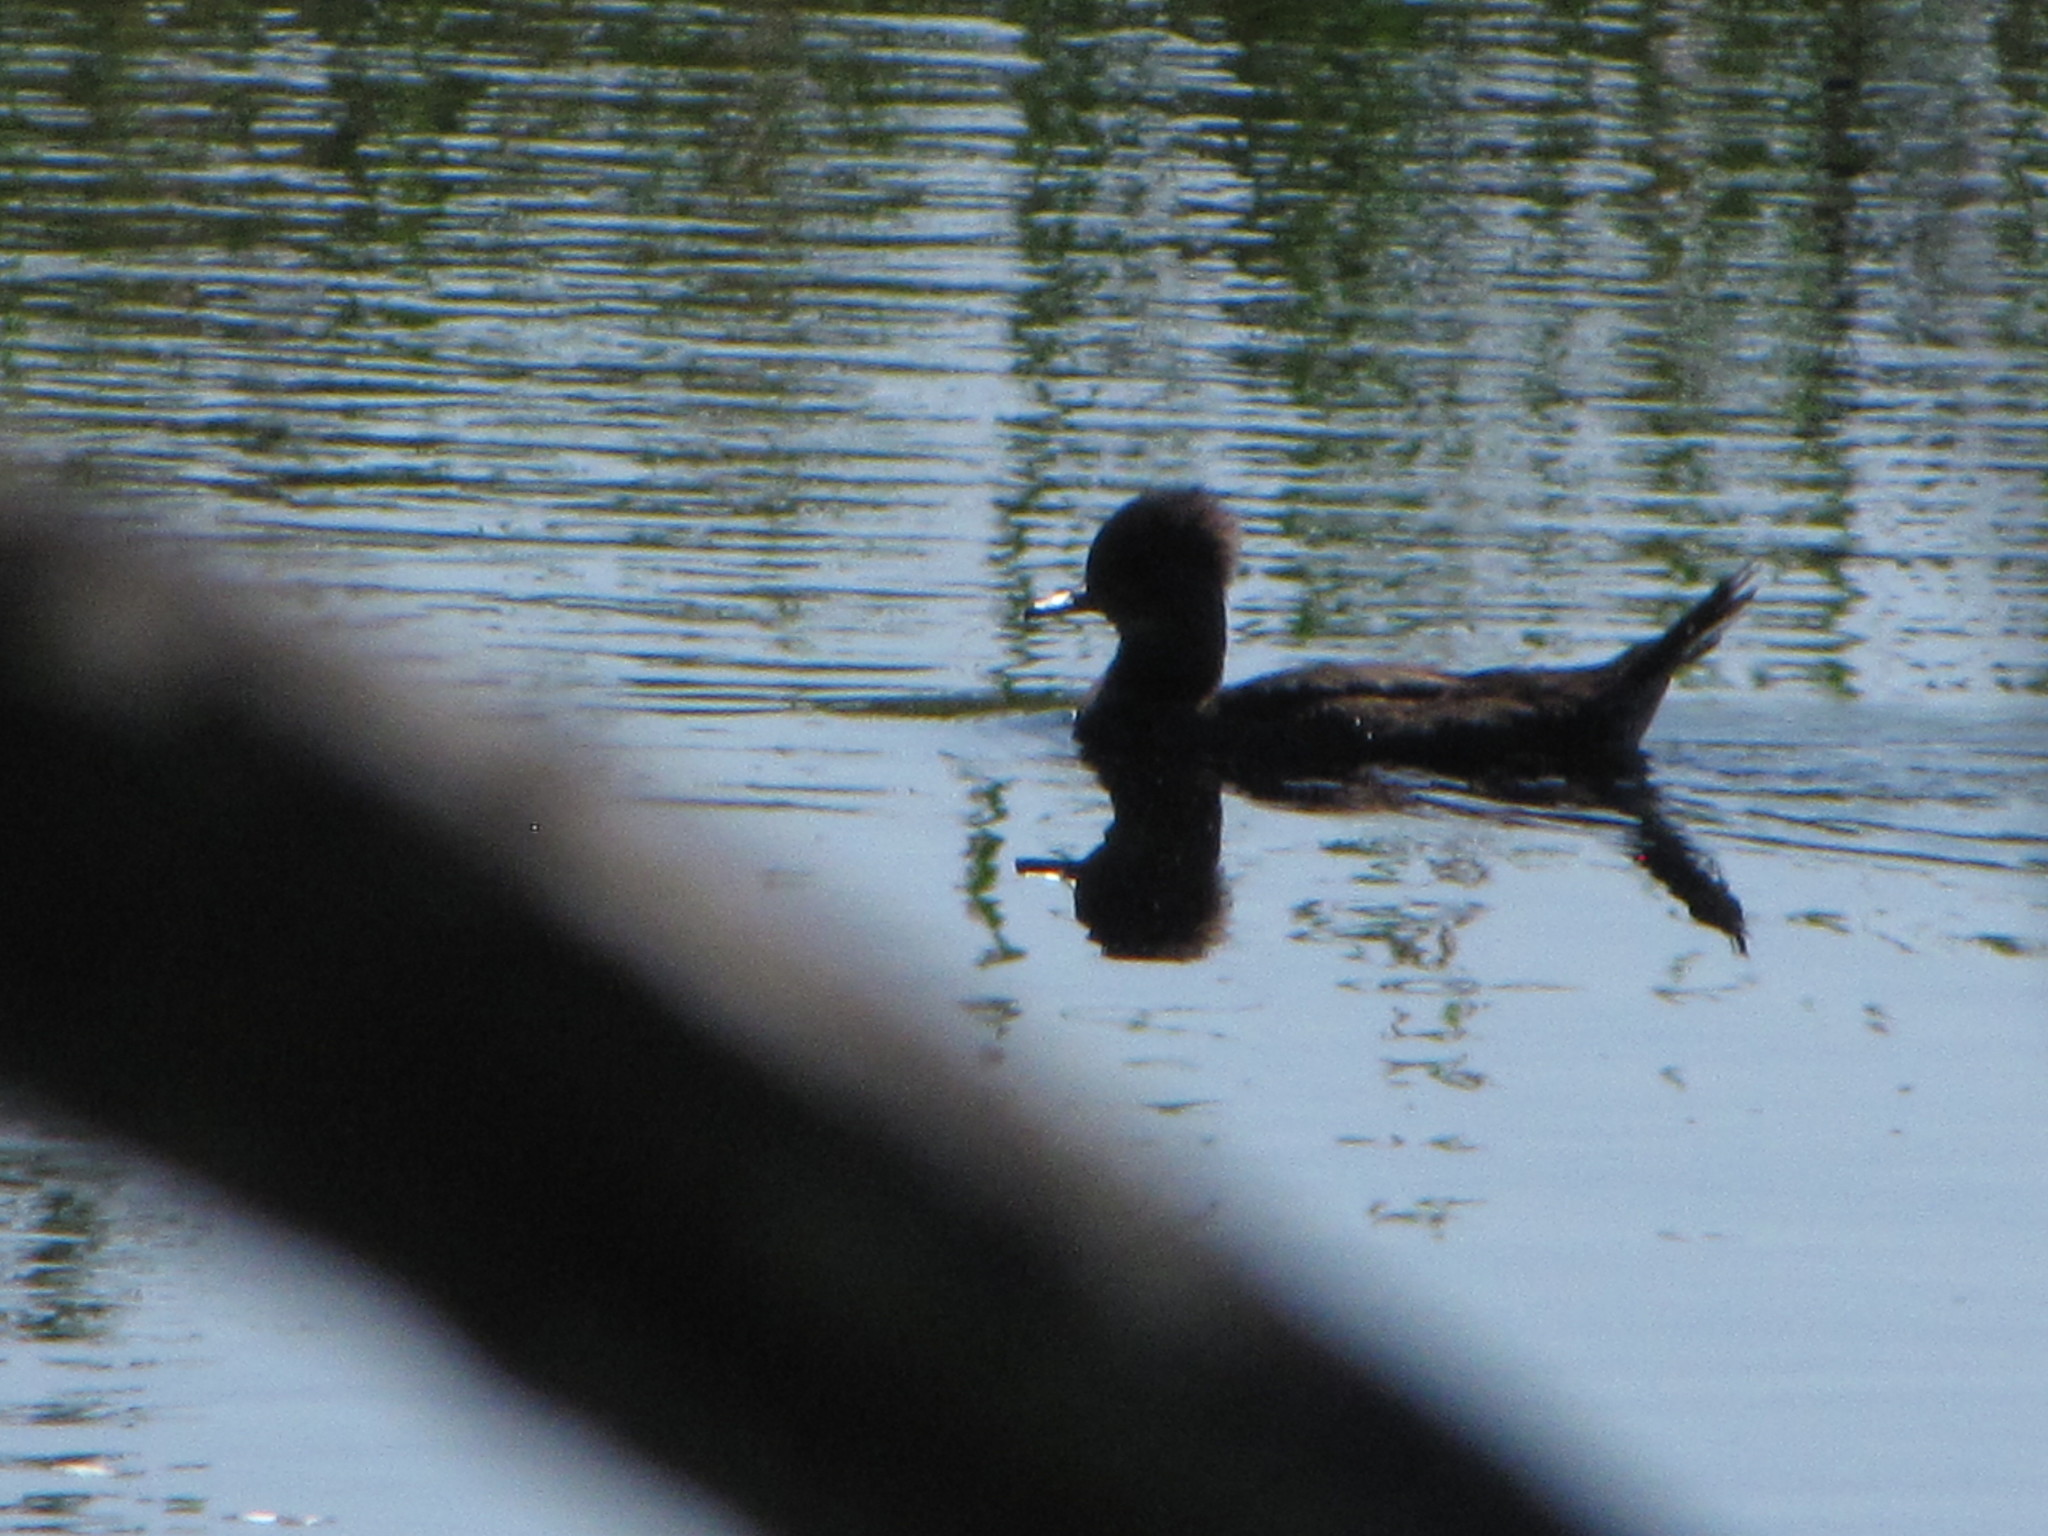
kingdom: Animalia
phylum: Chordata
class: Aves
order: Anseriformes
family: Anatidae
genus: Lophodytes
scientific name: Lophodytes cucullatus
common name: Hooded merganser
